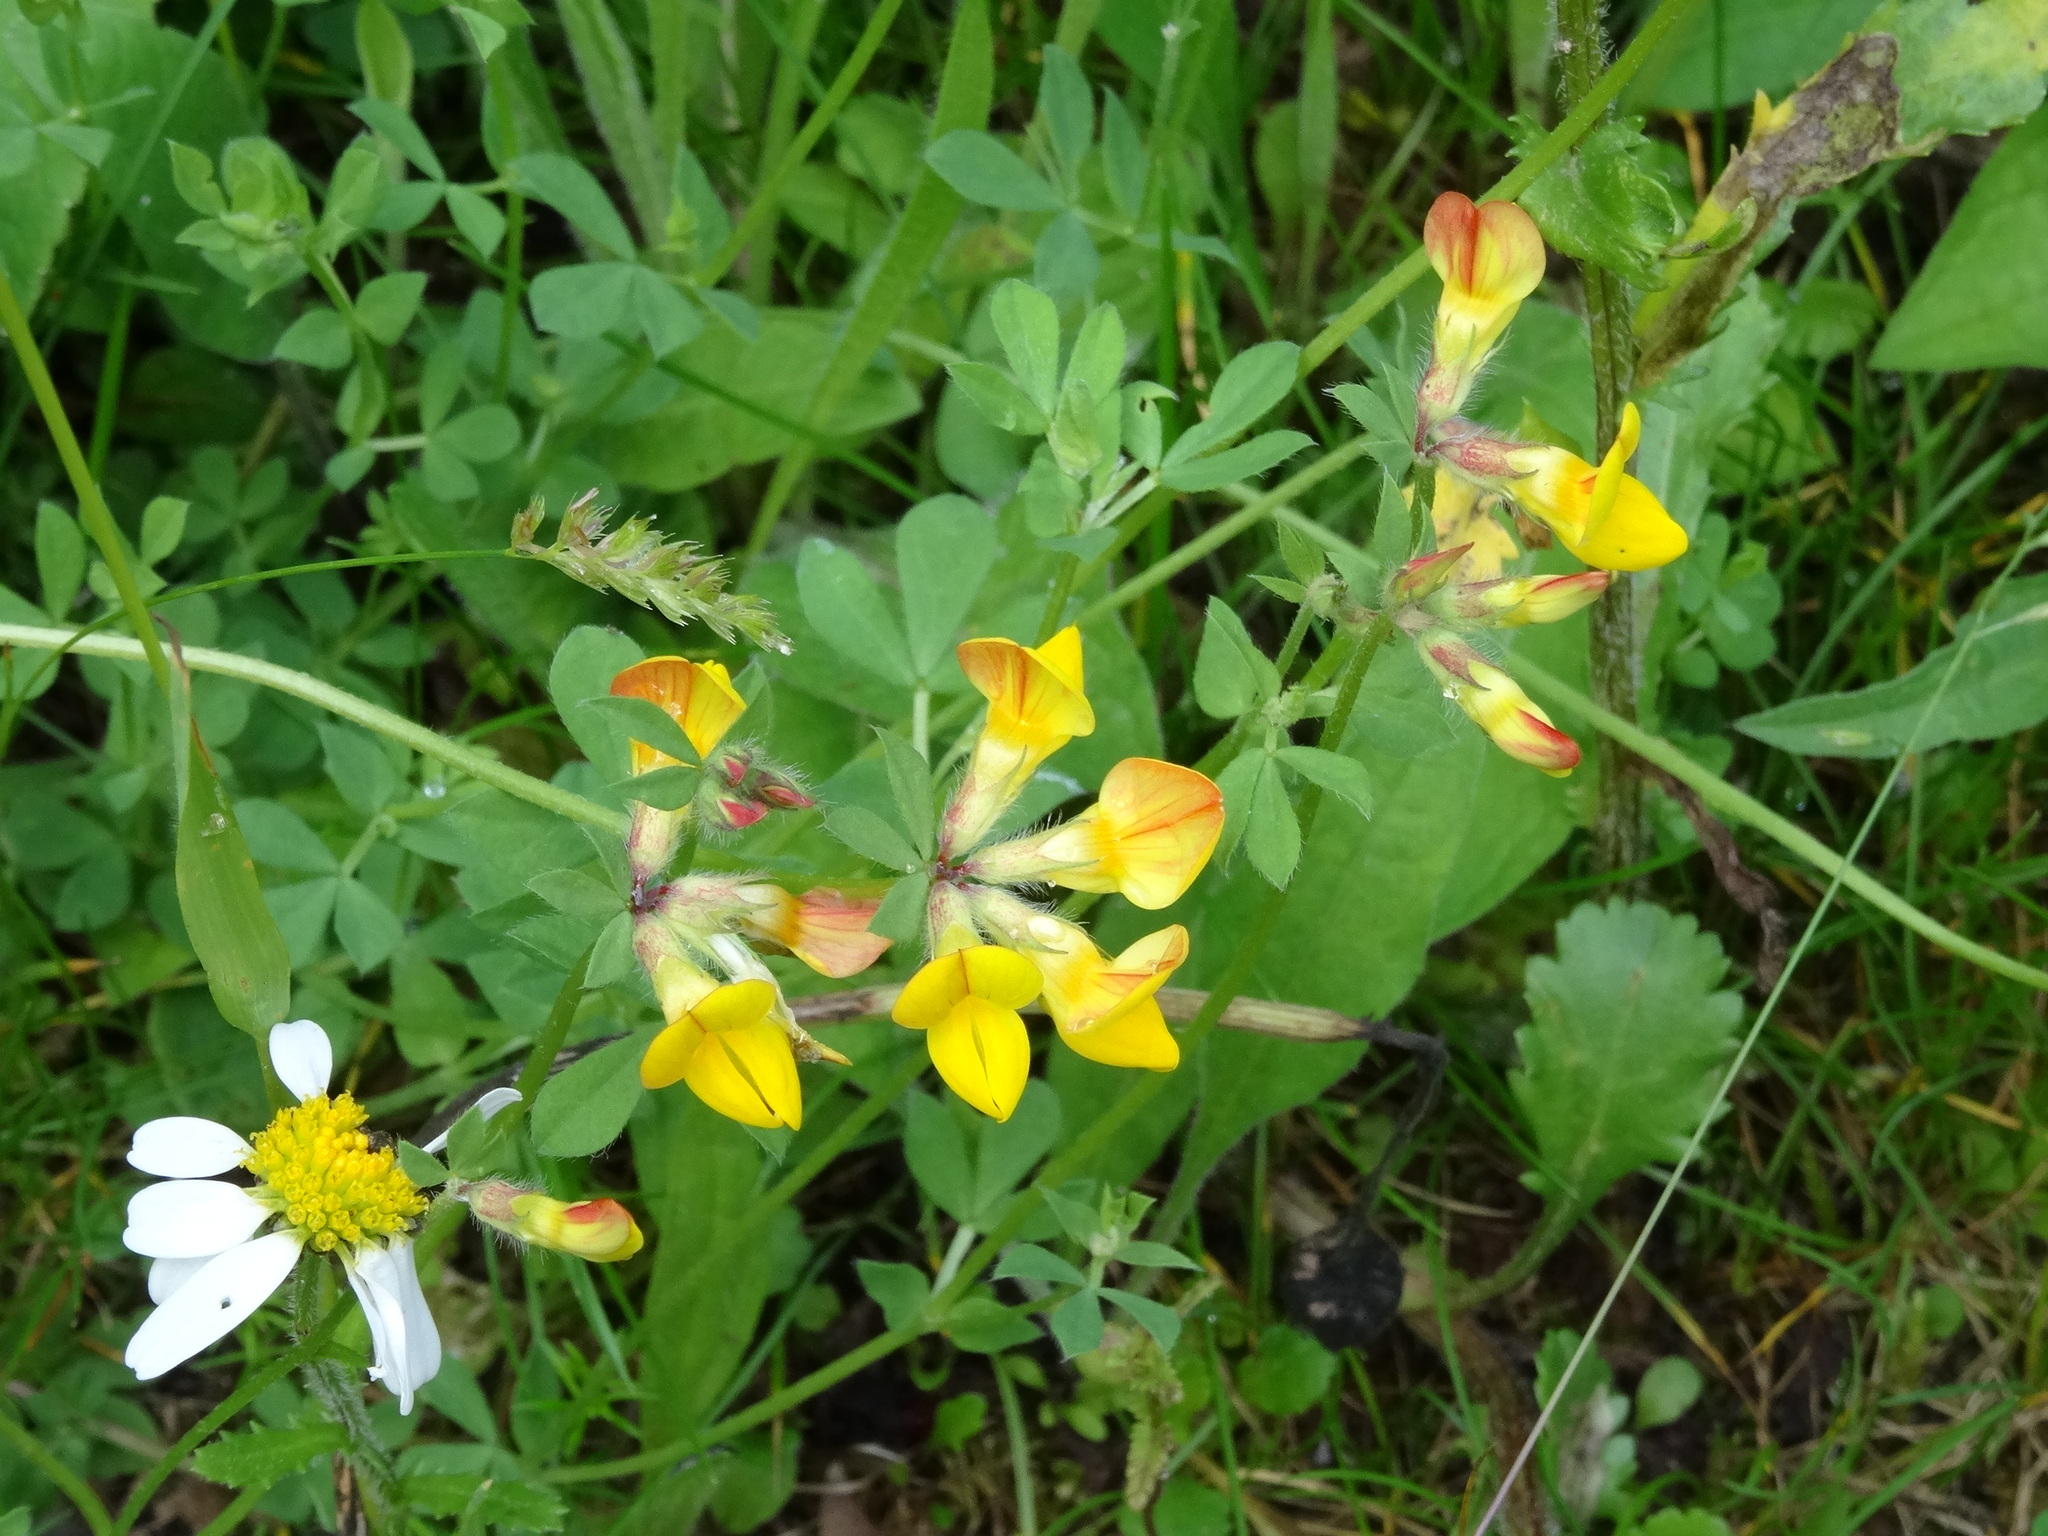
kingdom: Plantae
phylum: Tracheophyta
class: Magnoliopsida
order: Fabales
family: Fabaceae
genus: Lotus
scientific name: Lotus corniculatus
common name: Common bird's-foot-trefoil
